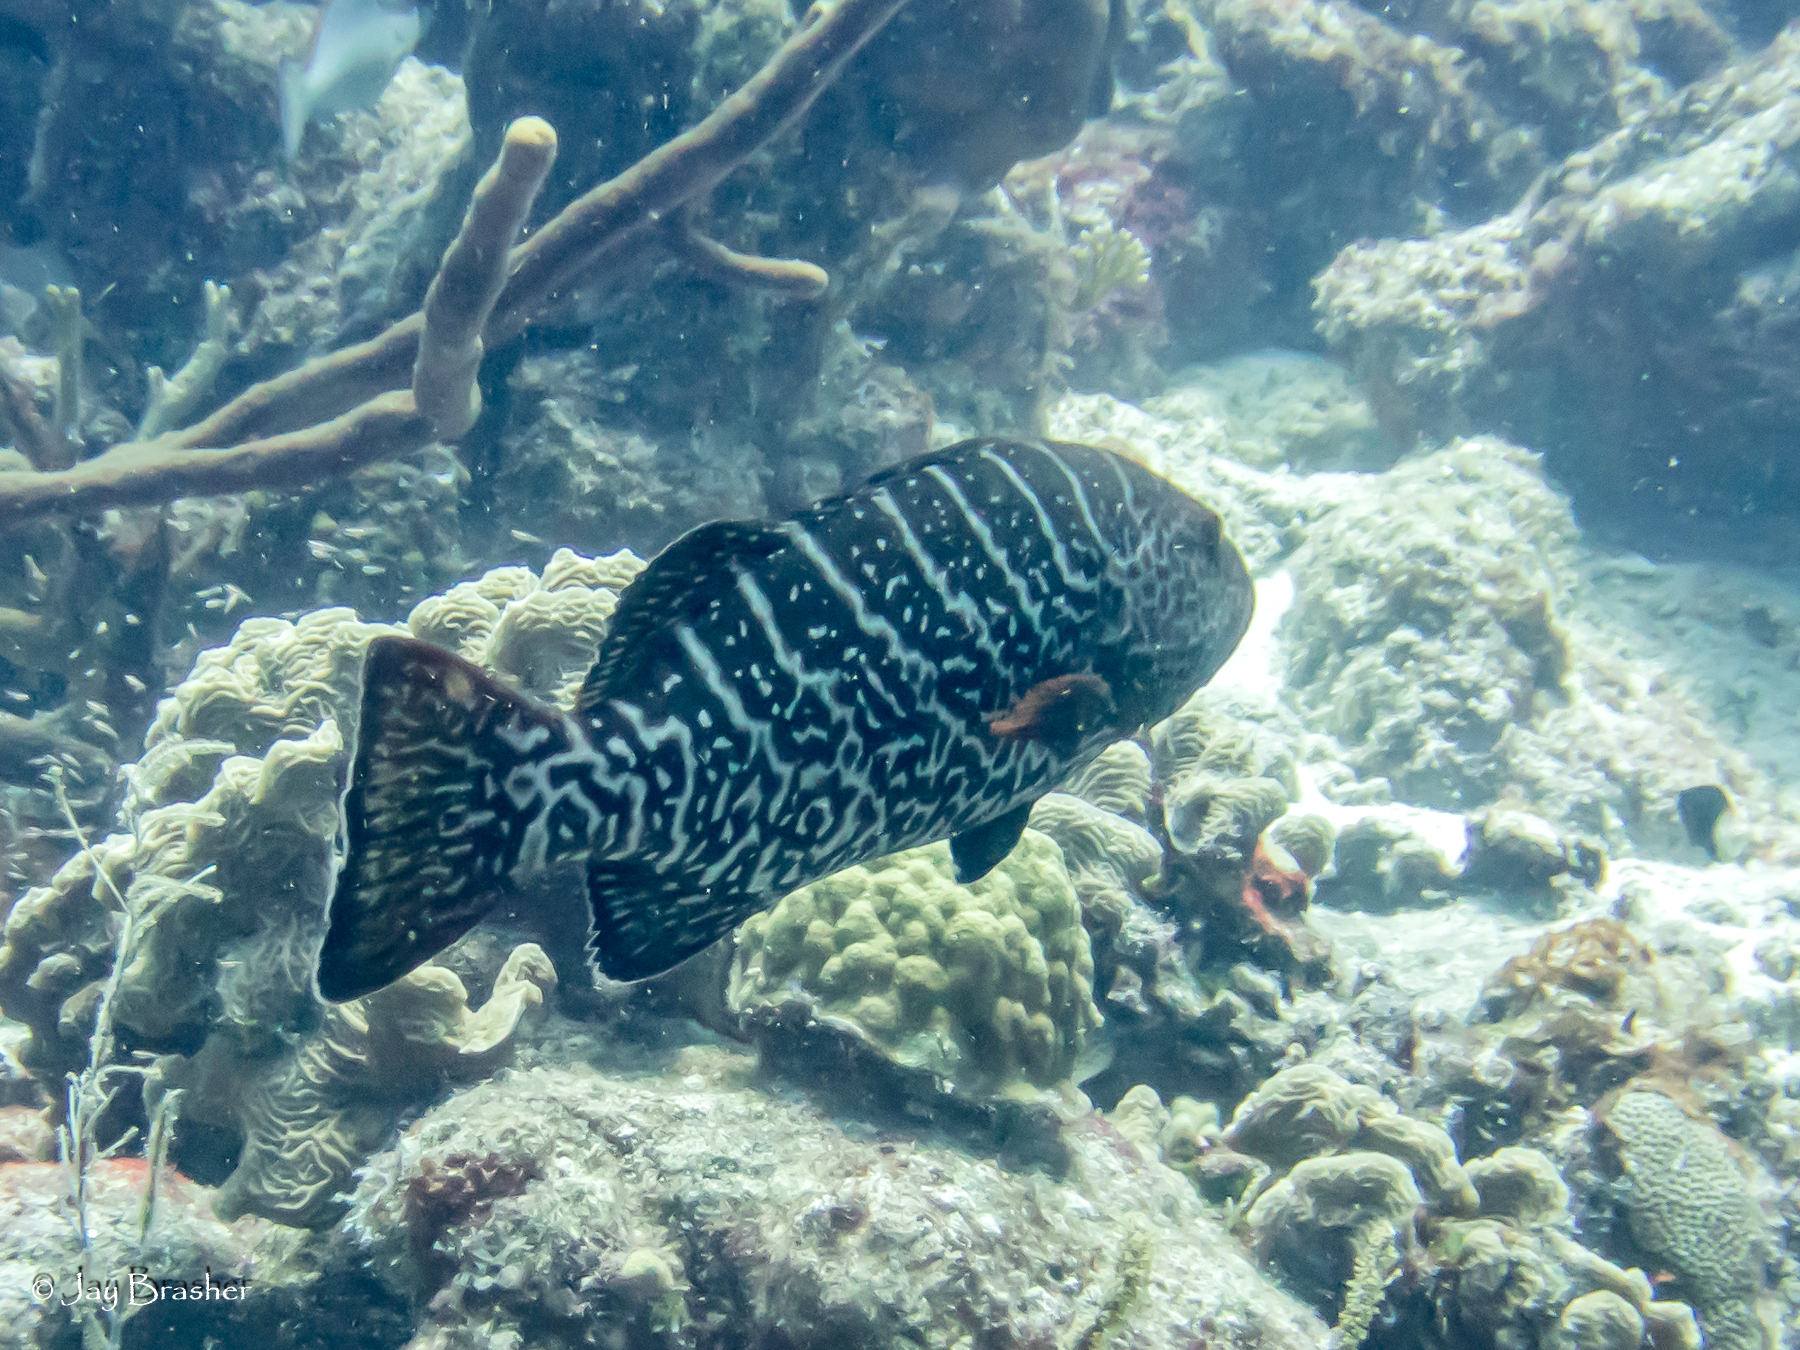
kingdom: Animalia
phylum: Chordata
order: Perciformes
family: Serranidae
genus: Mycteroperca
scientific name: Mycteroperca tigris
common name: Tiger grouper
